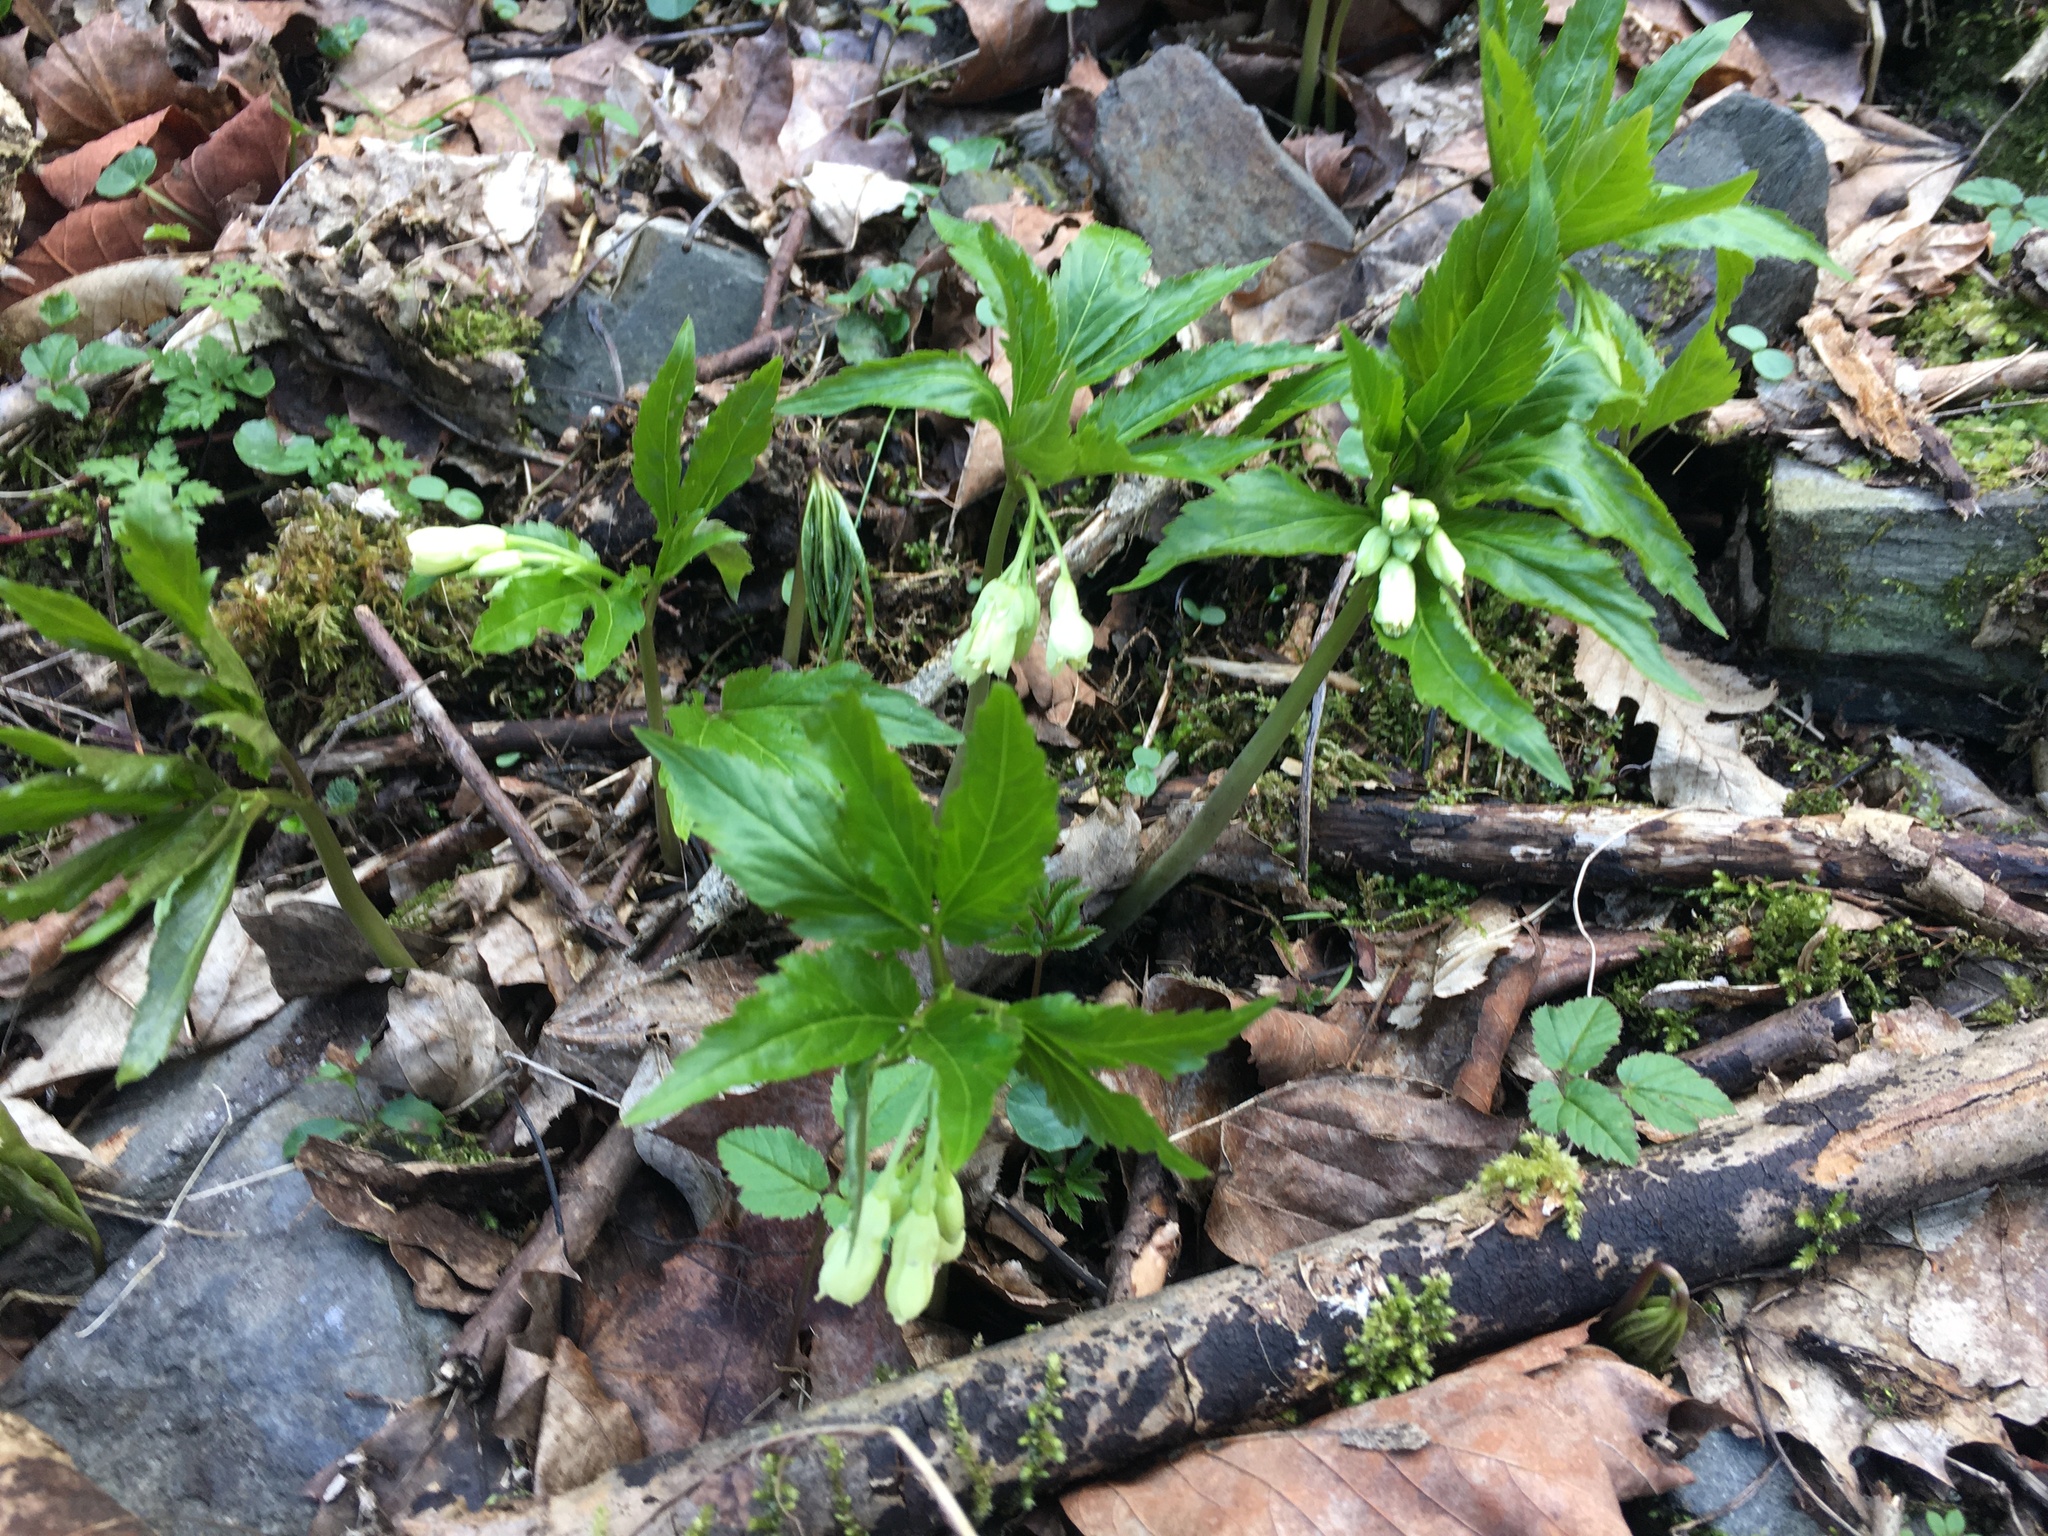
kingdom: Plantae
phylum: Tracheophyta
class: Magnoliopsida
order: Brassicales
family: Brassicaceae
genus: Cardamine
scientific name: Cardamine enneaphyllos
